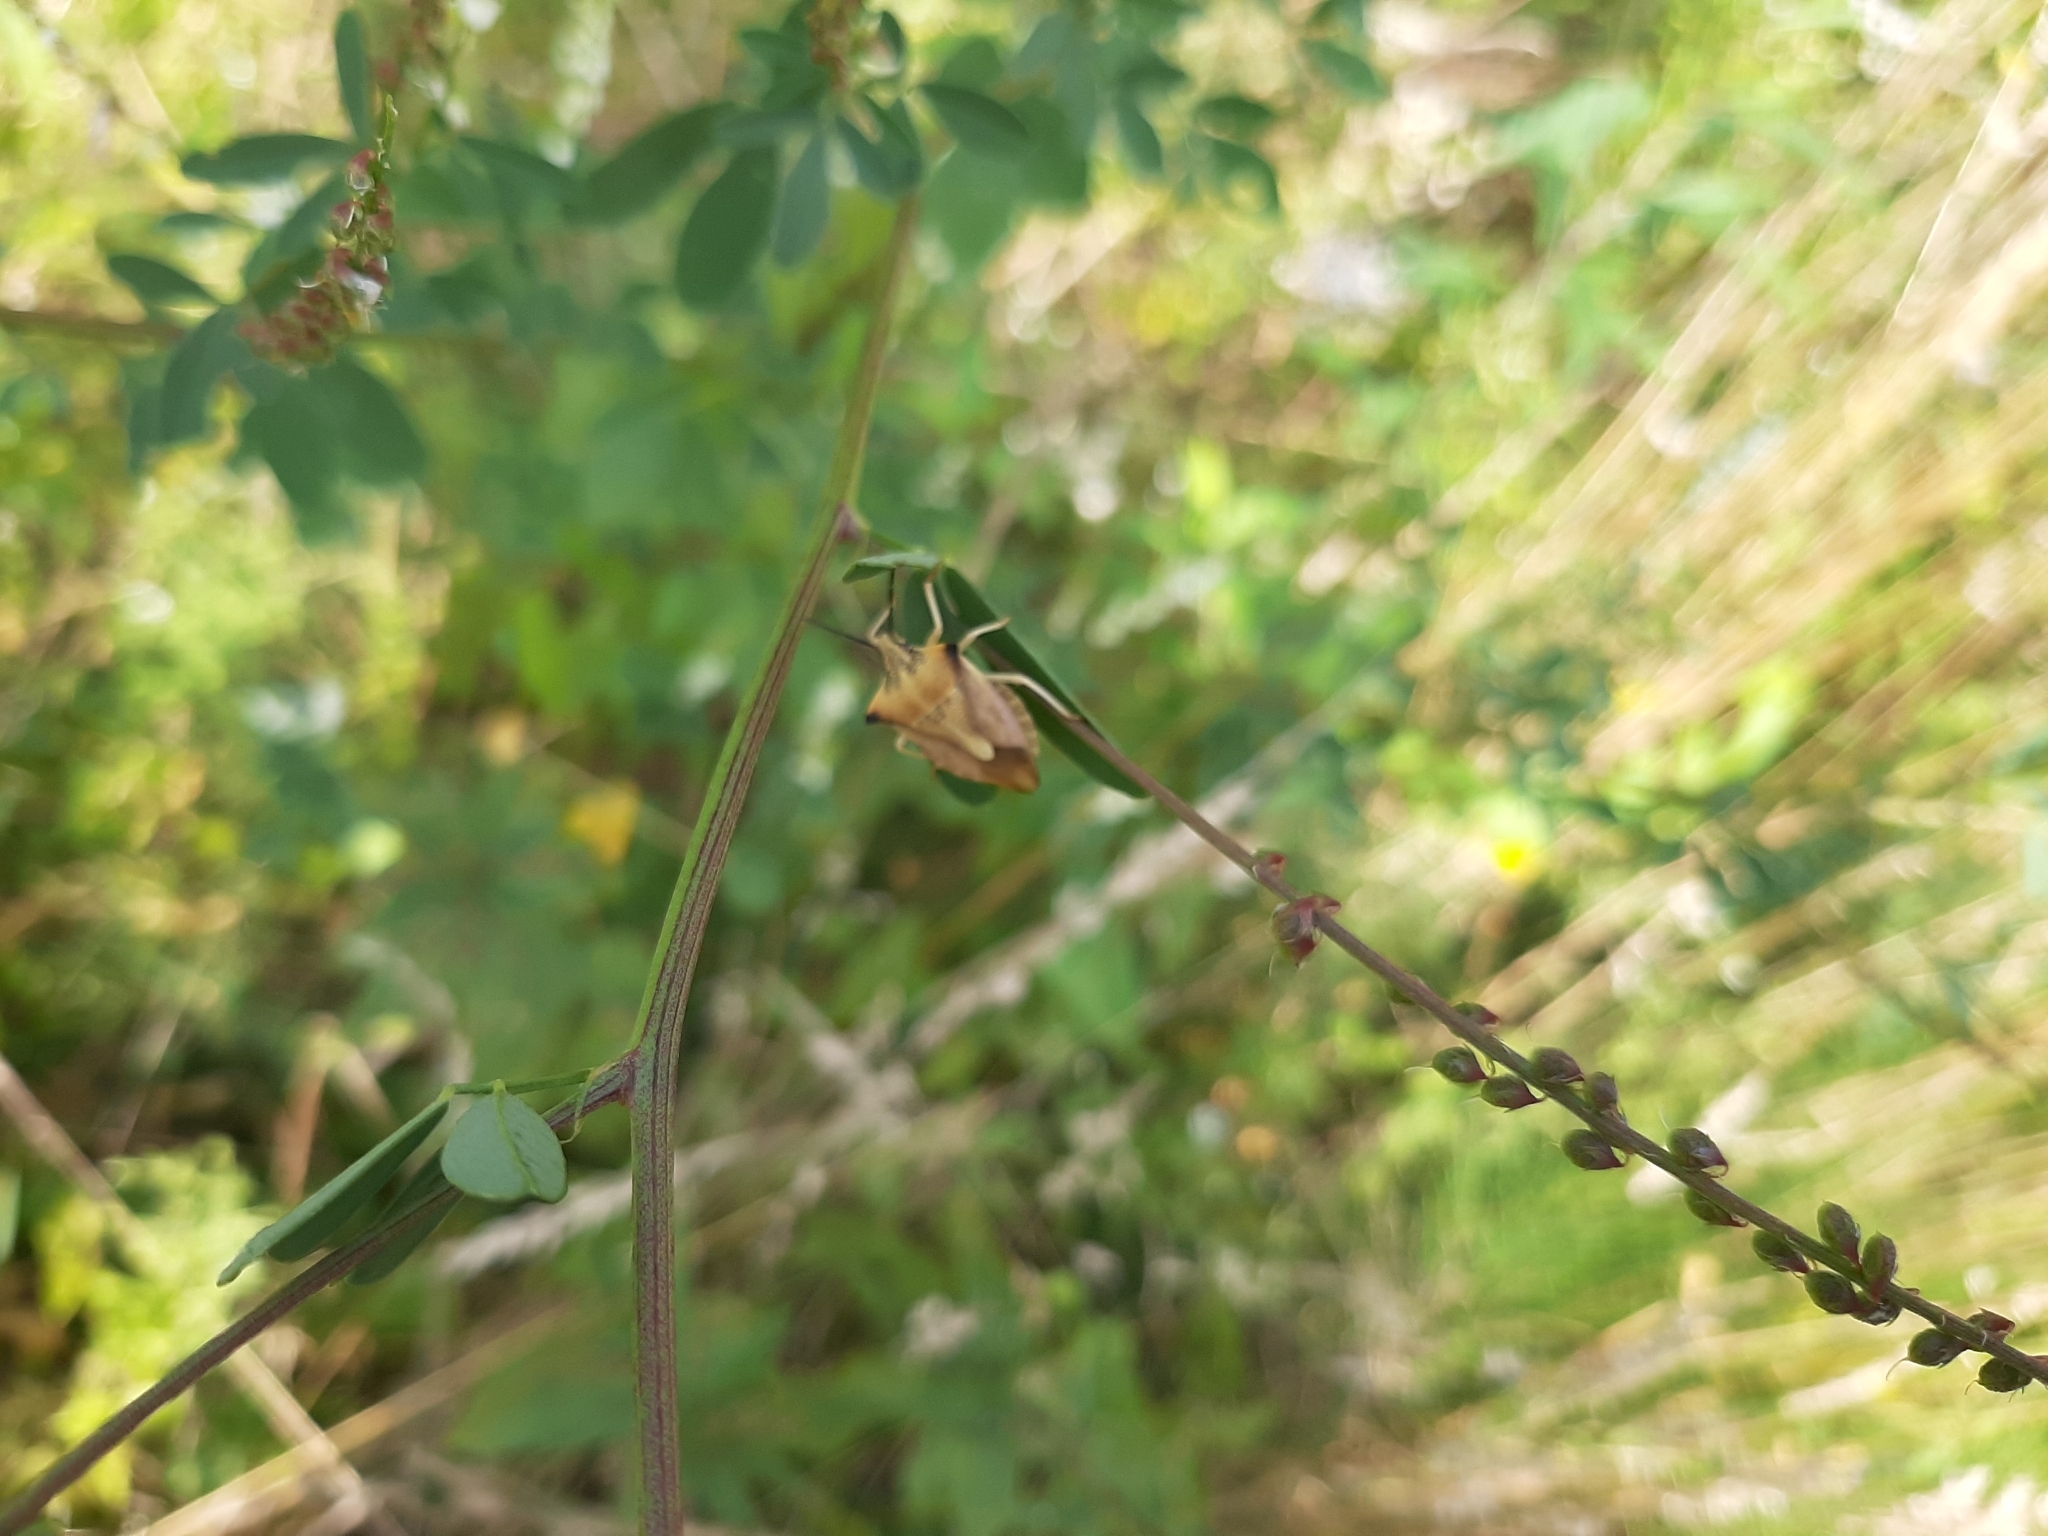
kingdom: Animalia
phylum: Arthropoda
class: Insecta
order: Hemiptera
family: Pentatomidae
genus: Carpocoris
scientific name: Carpocoris fuscispinus
